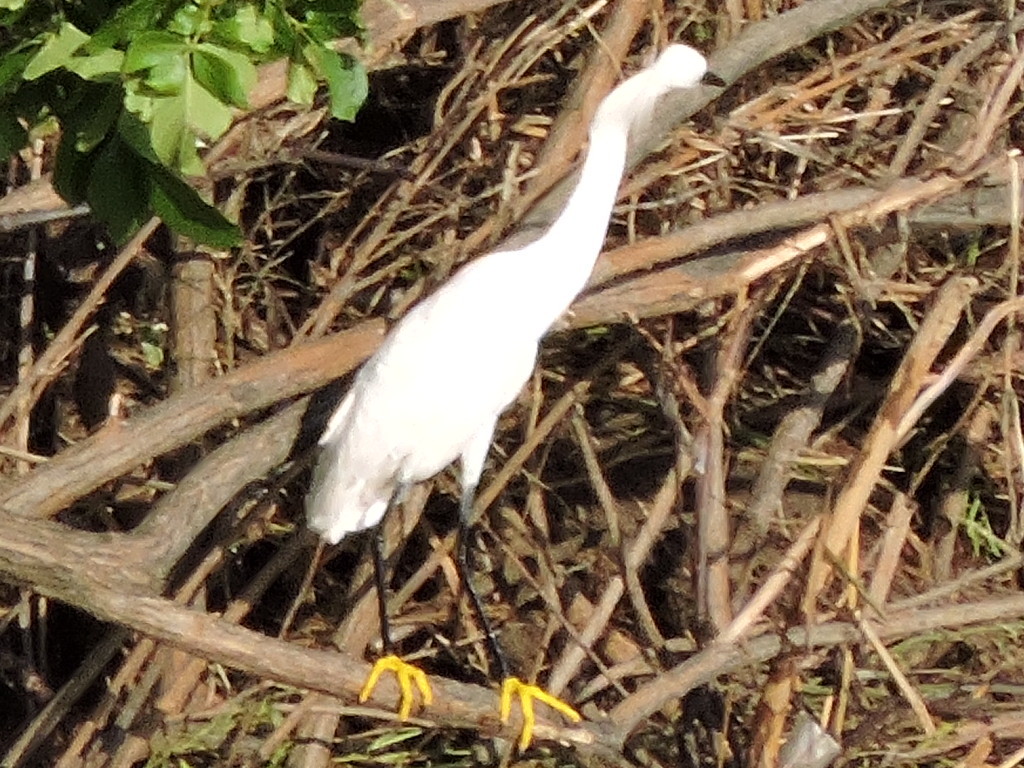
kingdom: Animalia
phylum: Chordata
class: Aves
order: Pelecaniformes
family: Ardeidae
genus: Egretta
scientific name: Egretta thula
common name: Snowy egret
